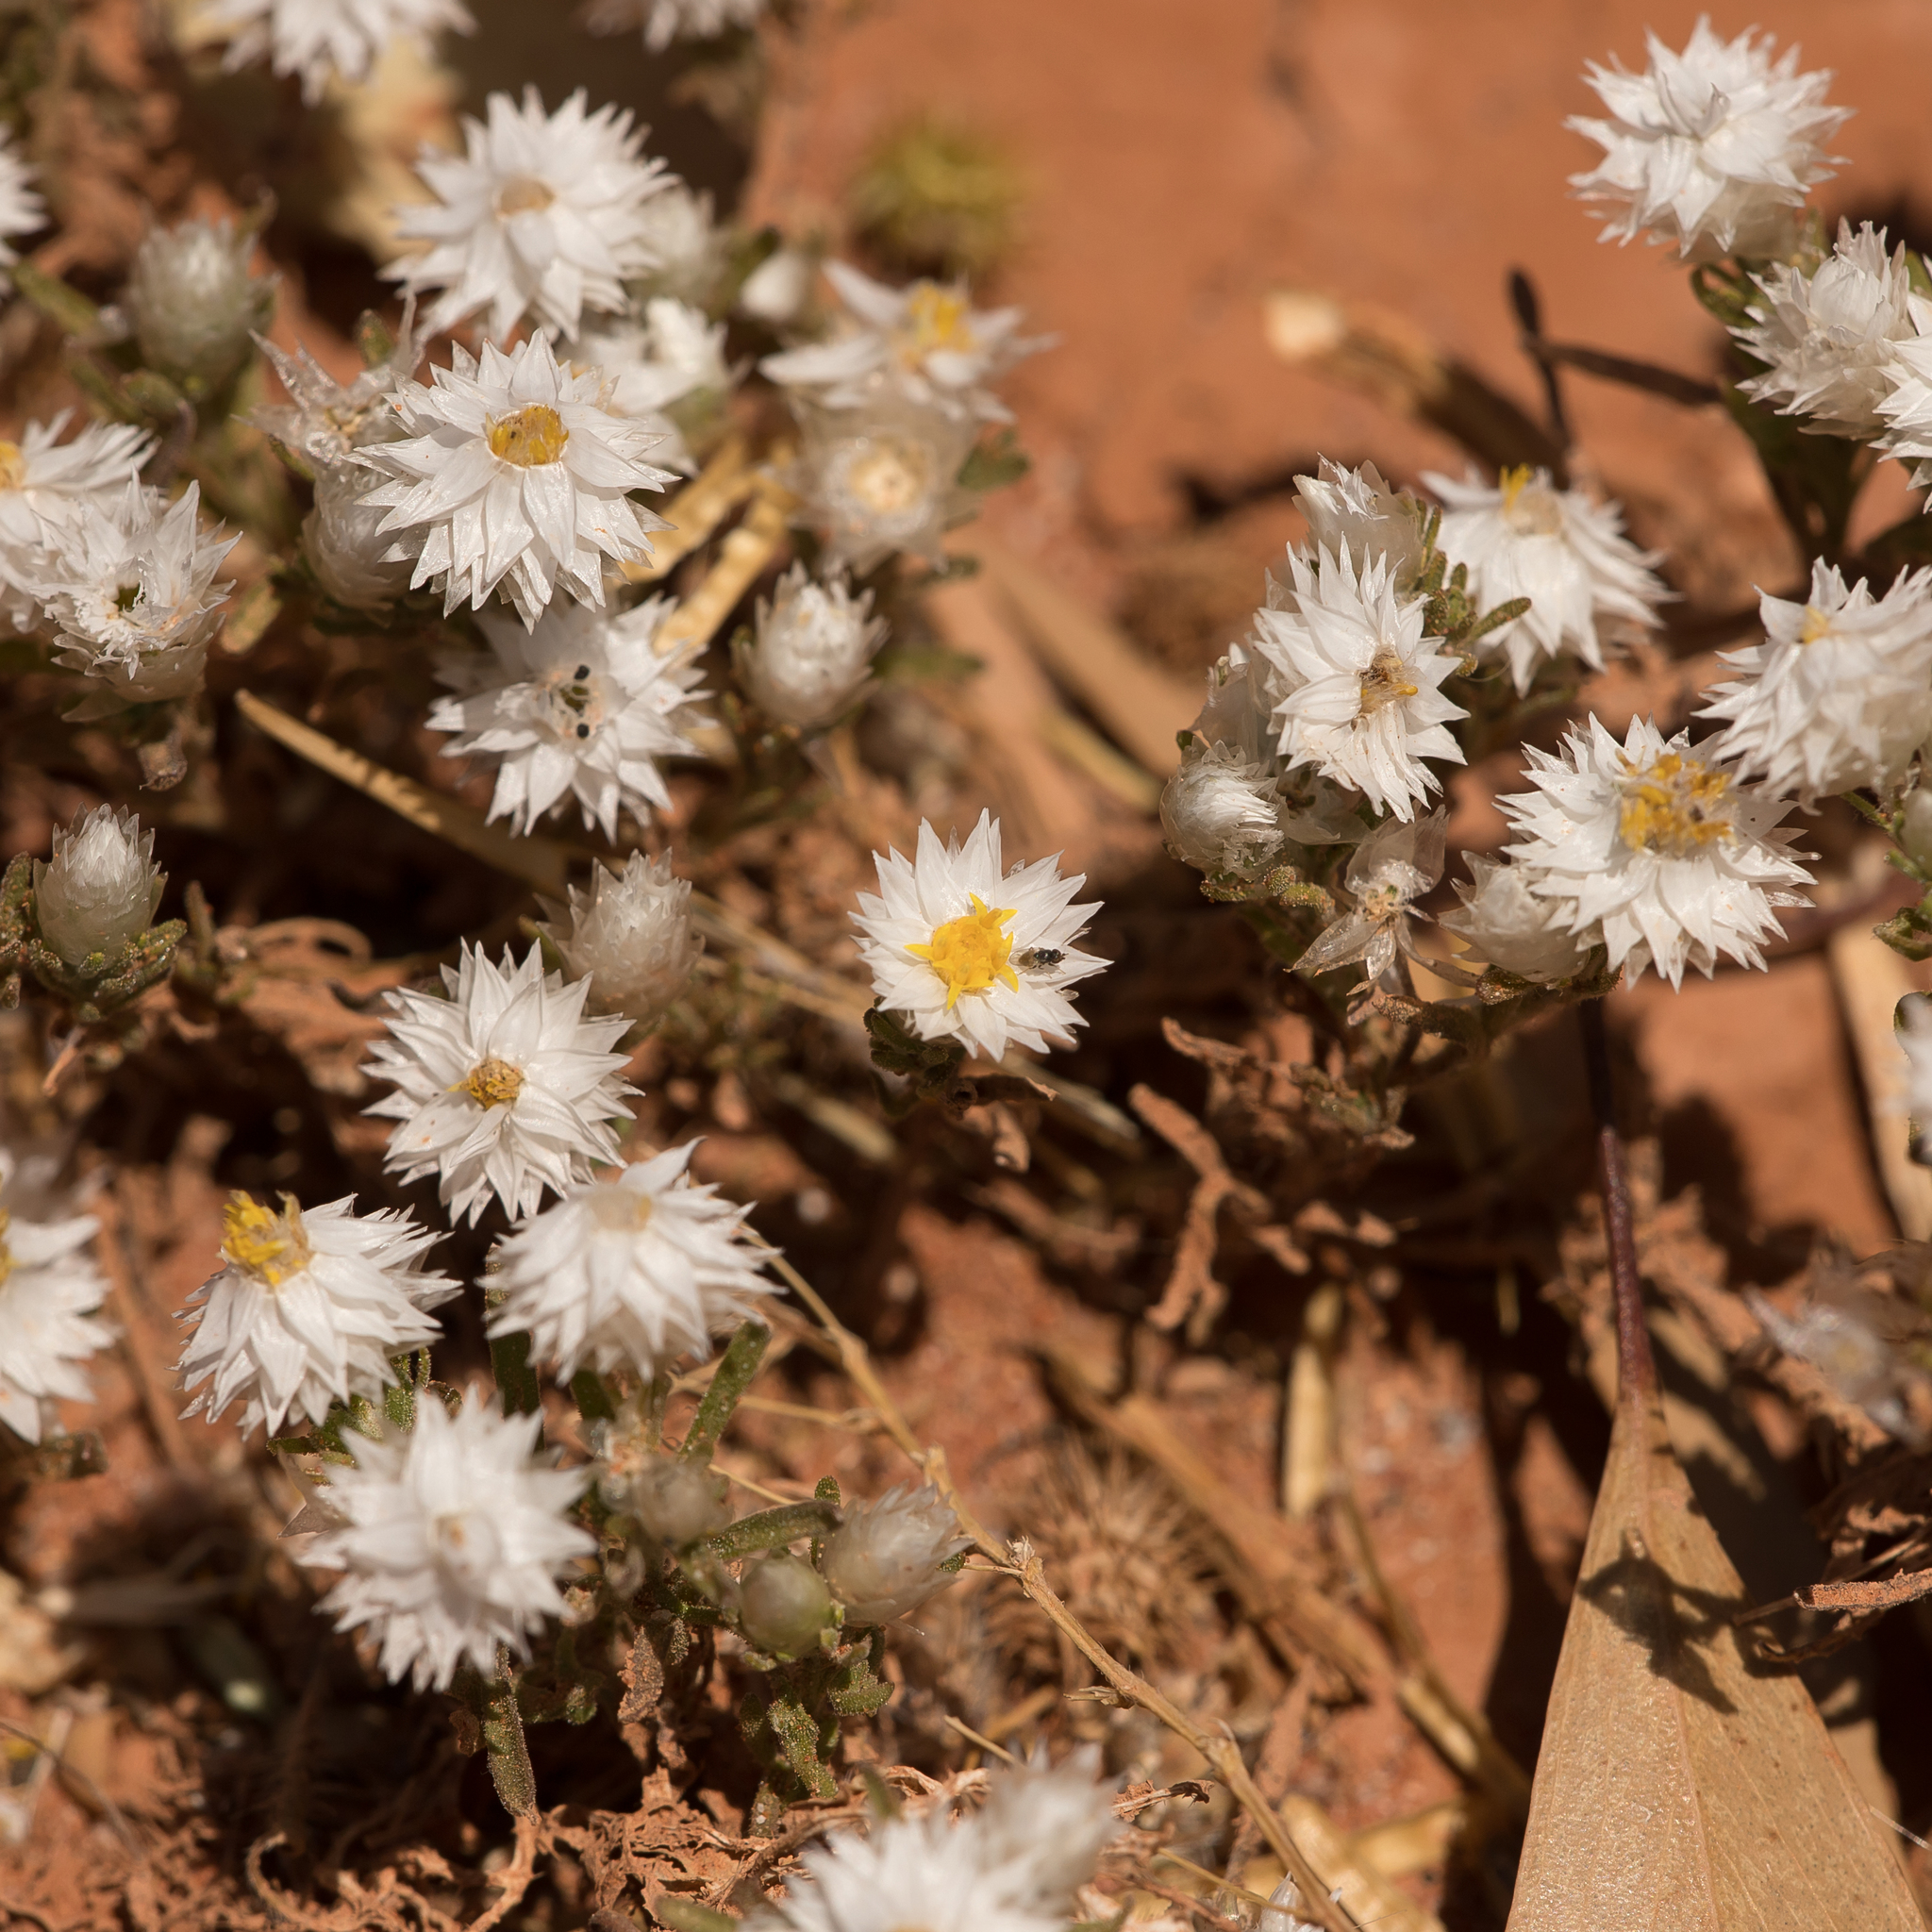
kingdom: Plantae
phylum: Tracheophyta
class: Magnoliopsida
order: Asterales
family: Asteraceae
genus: Rhodanthe
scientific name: Rhodanthe floribunda
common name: Flowery sunray
